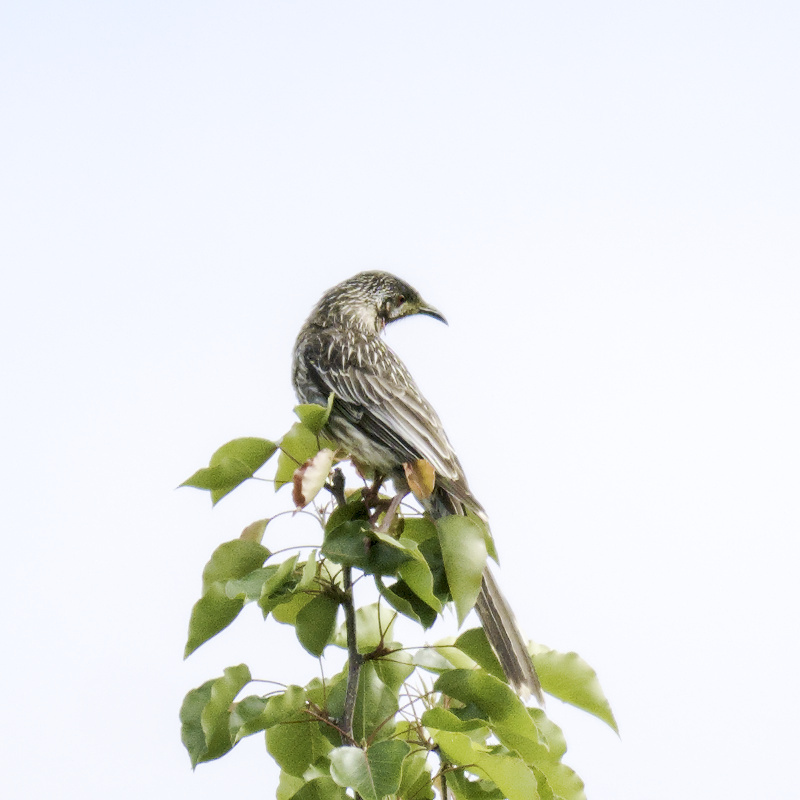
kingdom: Animalia
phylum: Chordata
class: Aves
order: Passeriformes
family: Meliphagidae
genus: Anthochaera
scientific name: Anthochaera carunculata
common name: Red wattlebird
